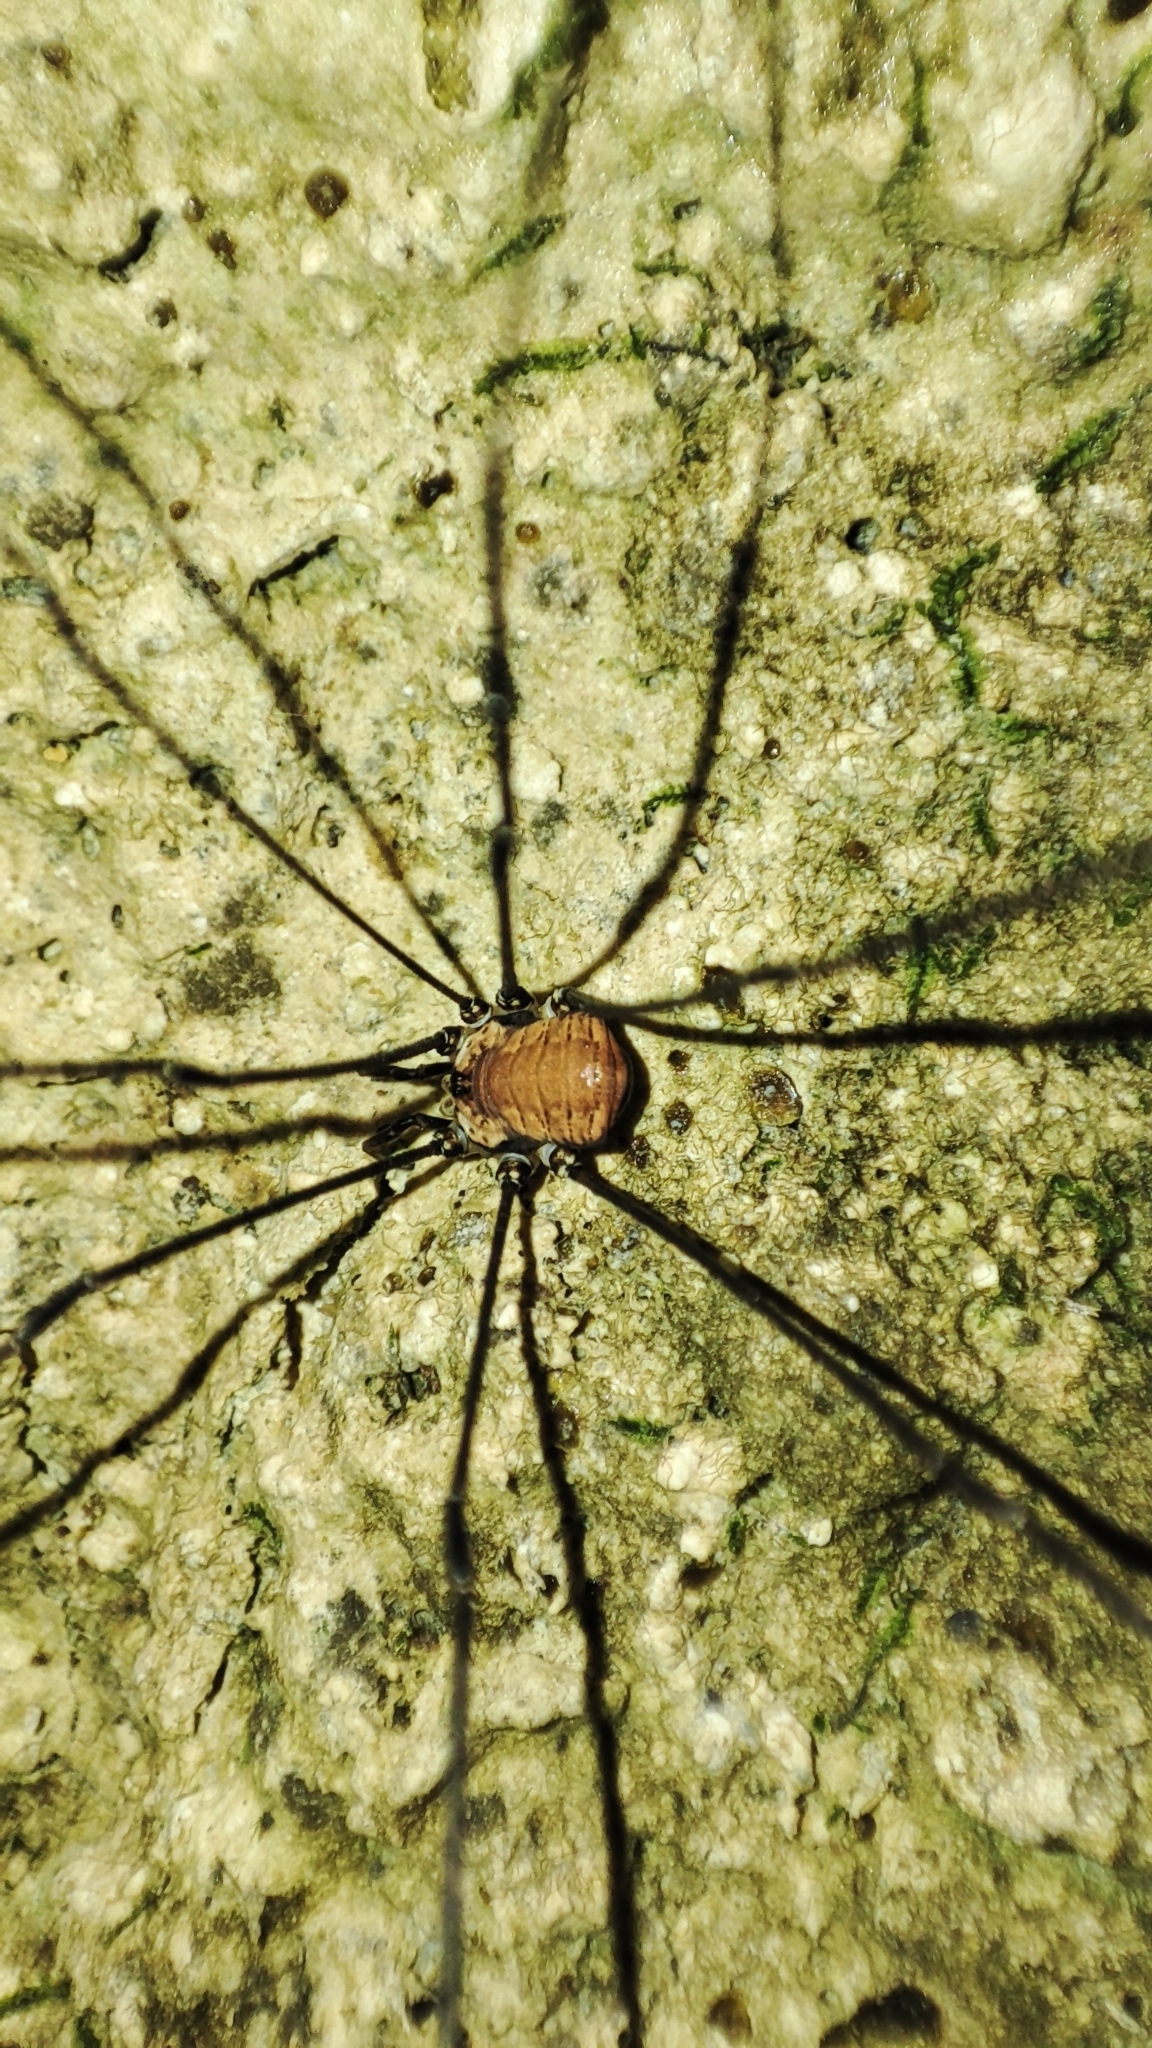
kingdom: Animalia
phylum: Arthropoda
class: Arachnida
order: Opiliones
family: Sclerosomatidae
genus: Leiobunum
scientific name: Leiobunum limbatum
